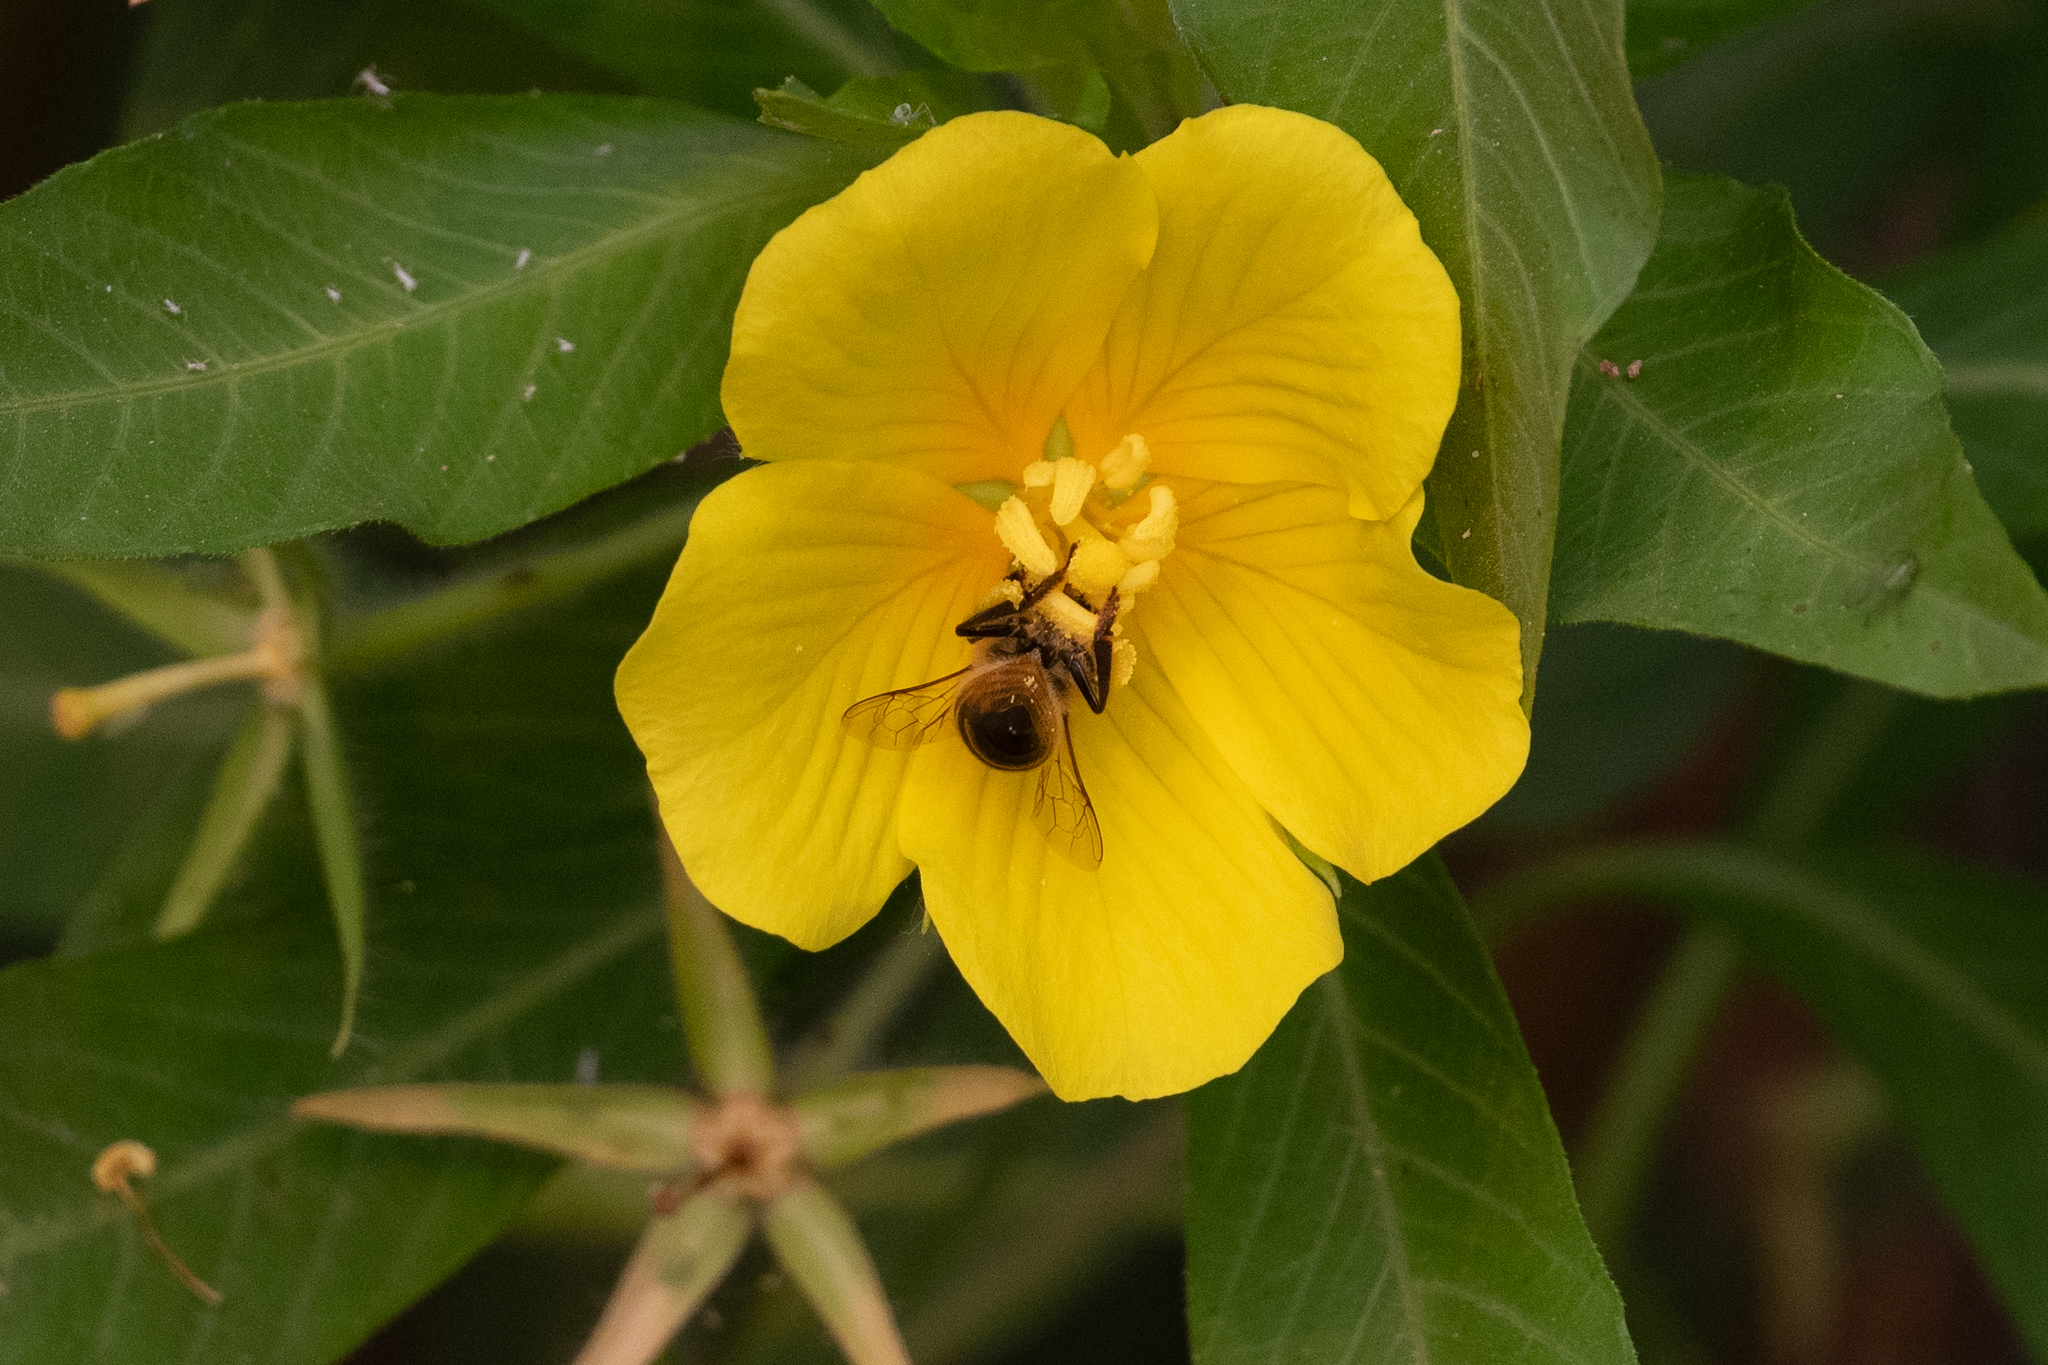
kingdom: Animalia
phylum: Arthropoda
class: Insecta
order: Hymenoptera
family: Apidae
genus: Apis
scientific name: Apis mellifera
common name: Honey bee
